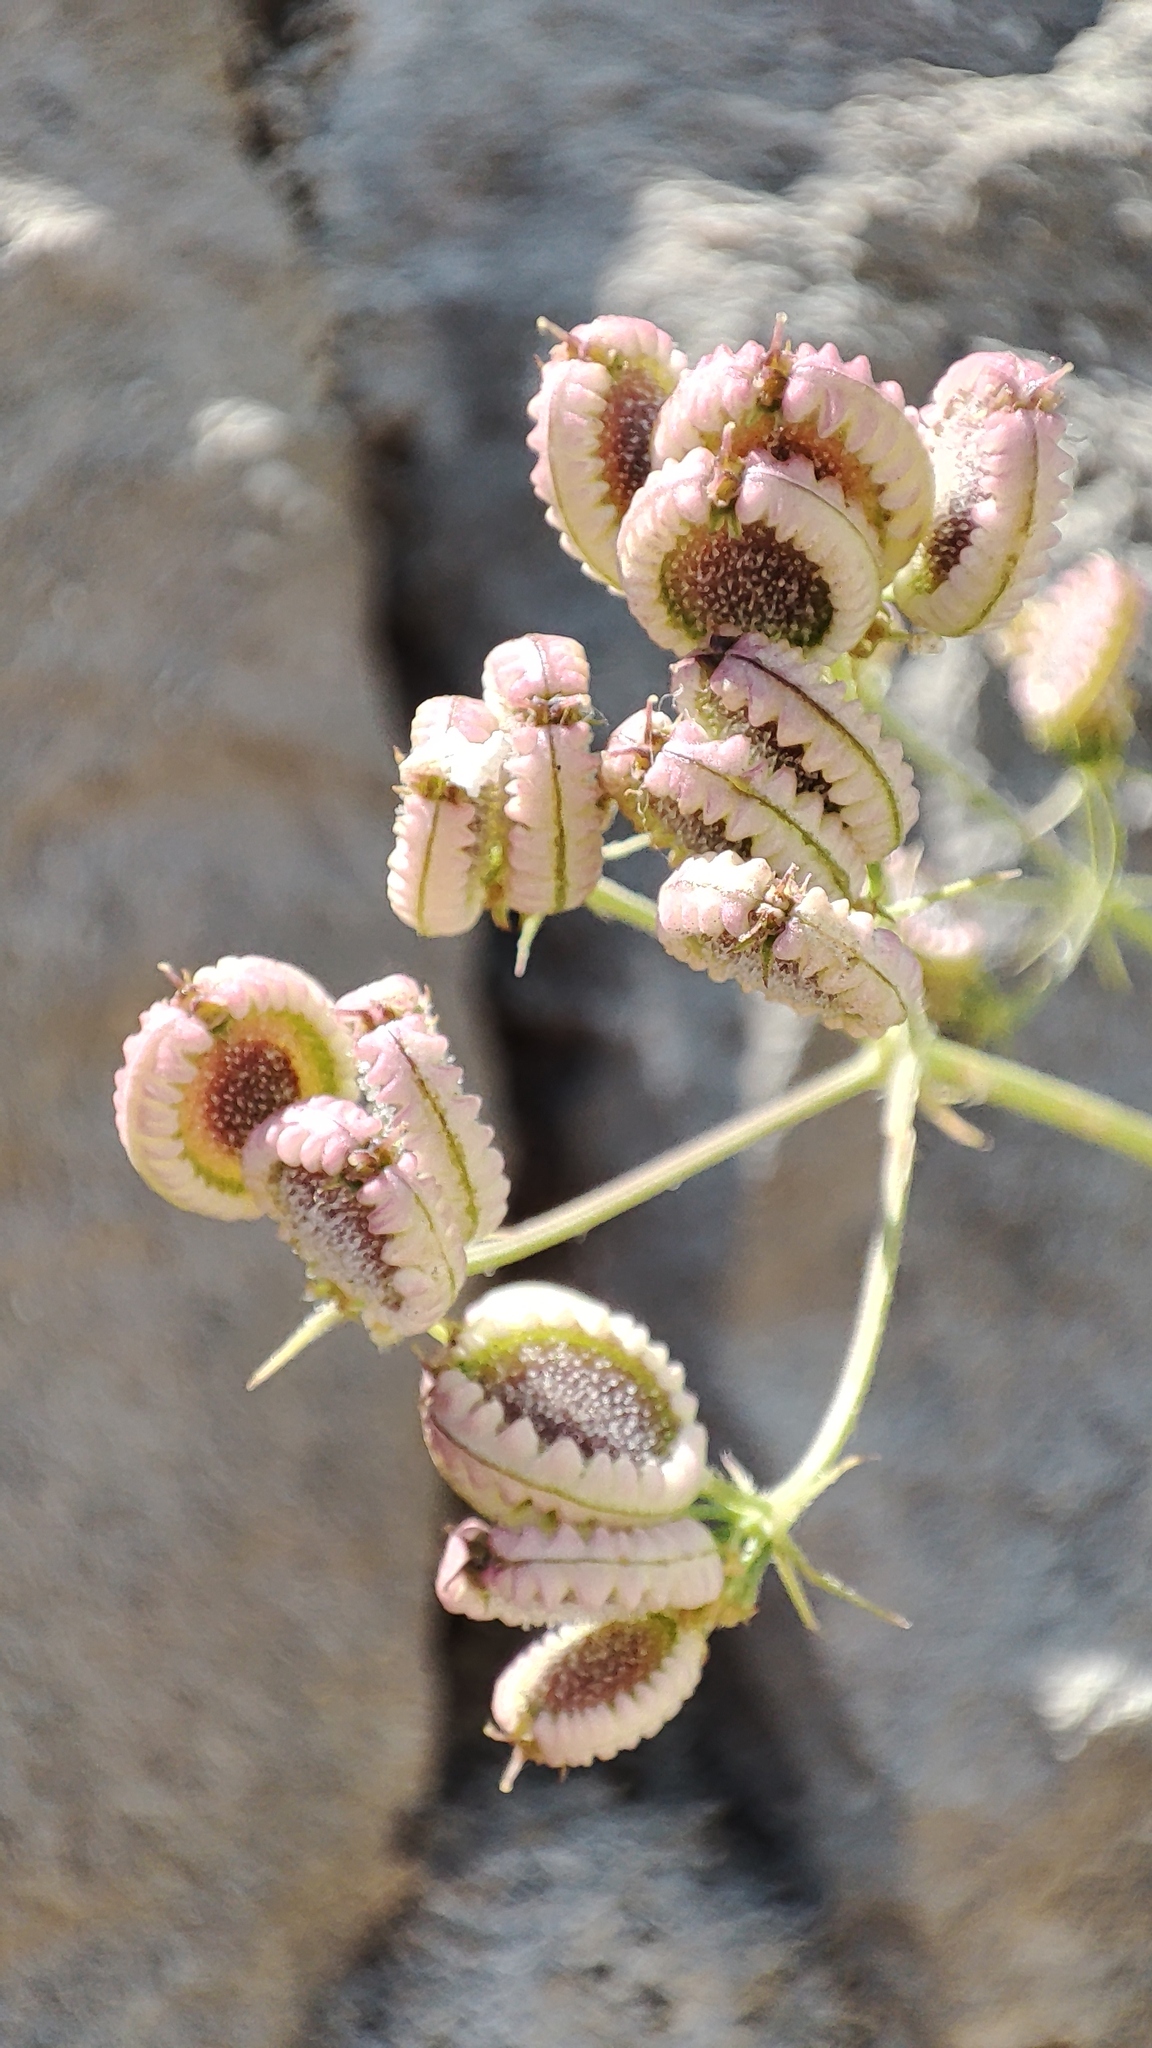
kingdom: Plantae
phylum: Tracheophyta
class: Magnoliopsida
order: Apiales
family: Apiaceae
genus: Tordylium
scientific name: Tordylium apulum
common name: Mediterranean hartwort
